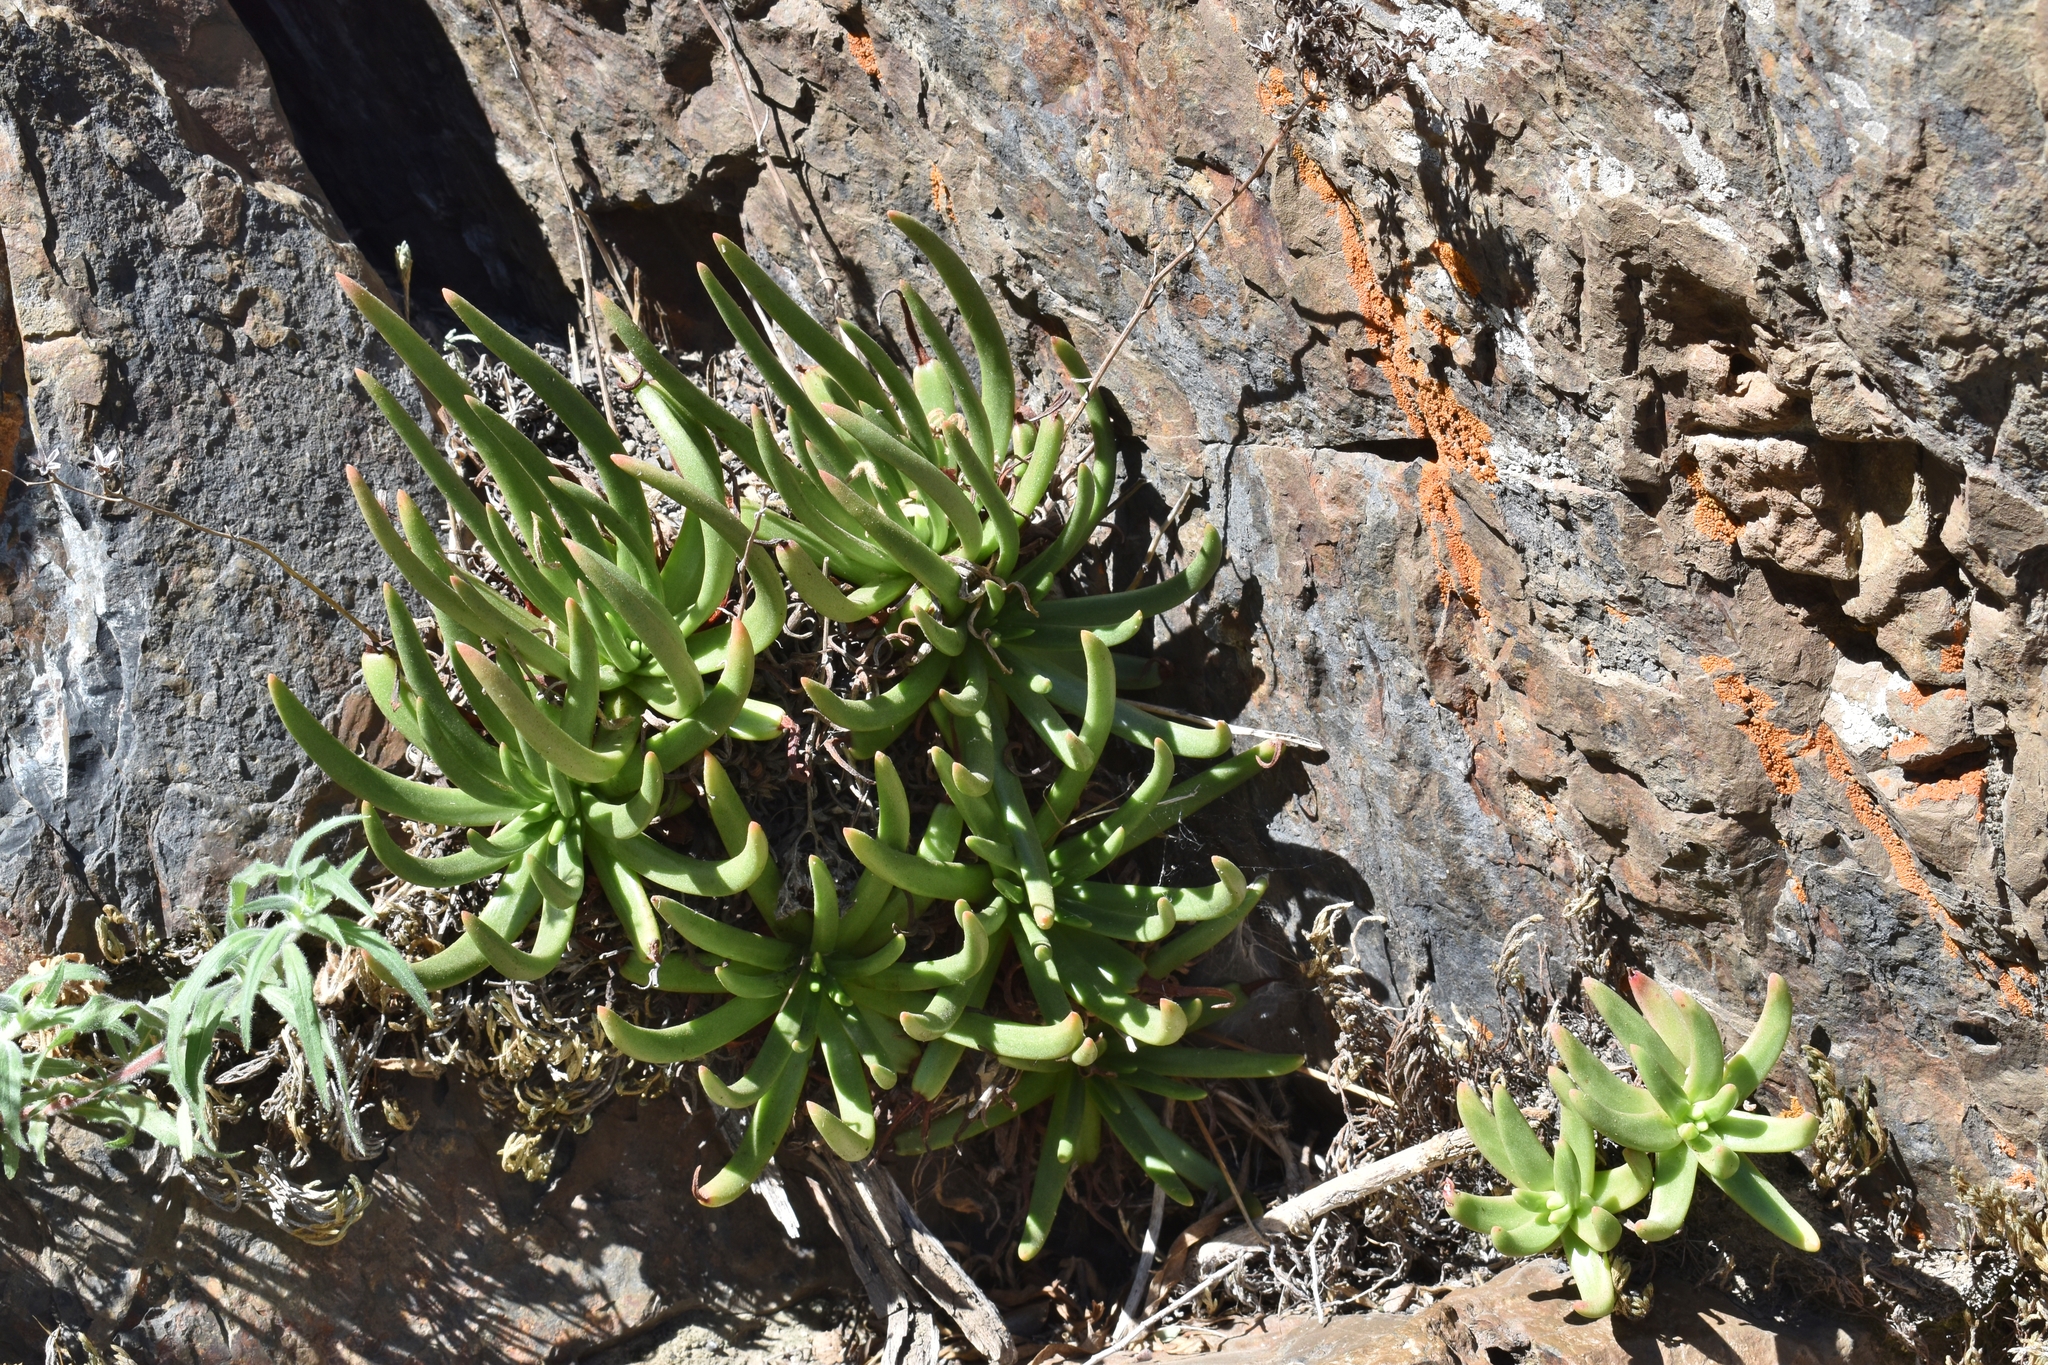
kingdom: Plantae
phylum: Tracheophyta
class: Magnoliopsida
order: Saxifragales
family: Crassulaceae
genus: Dudleya
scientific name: Dudleya viscida
